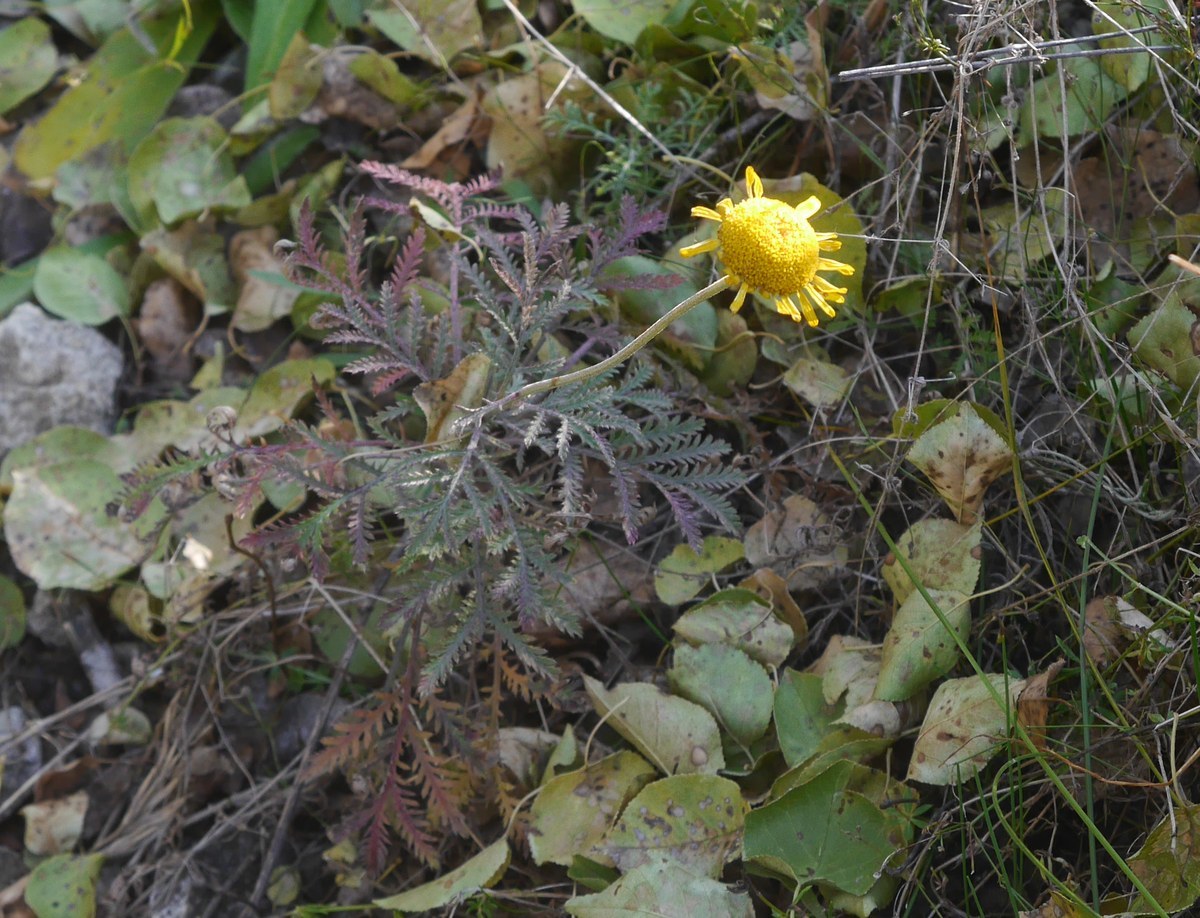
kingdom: Plantae
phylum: Tracheophyta
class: Magnoliopsida
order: Asterales
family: Asteraceae
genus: Cota
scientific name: Cota tinctoria
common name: Golden chamomile
